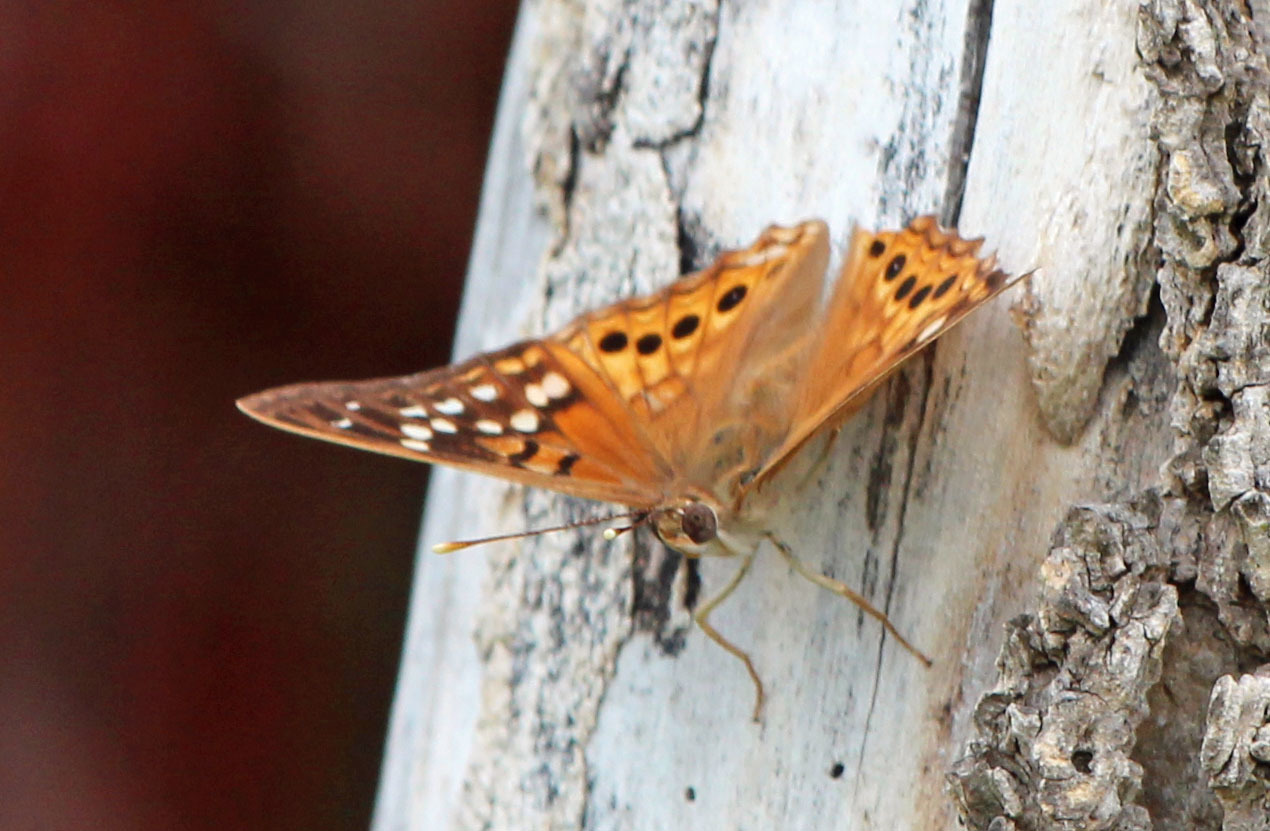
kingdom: Animalia
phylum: Arthropoda
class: Insecta
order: Lepidoptera
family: Nymphalidae
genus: Asterocampa
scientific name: Asterocampa clyton
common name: Tawny emperor
